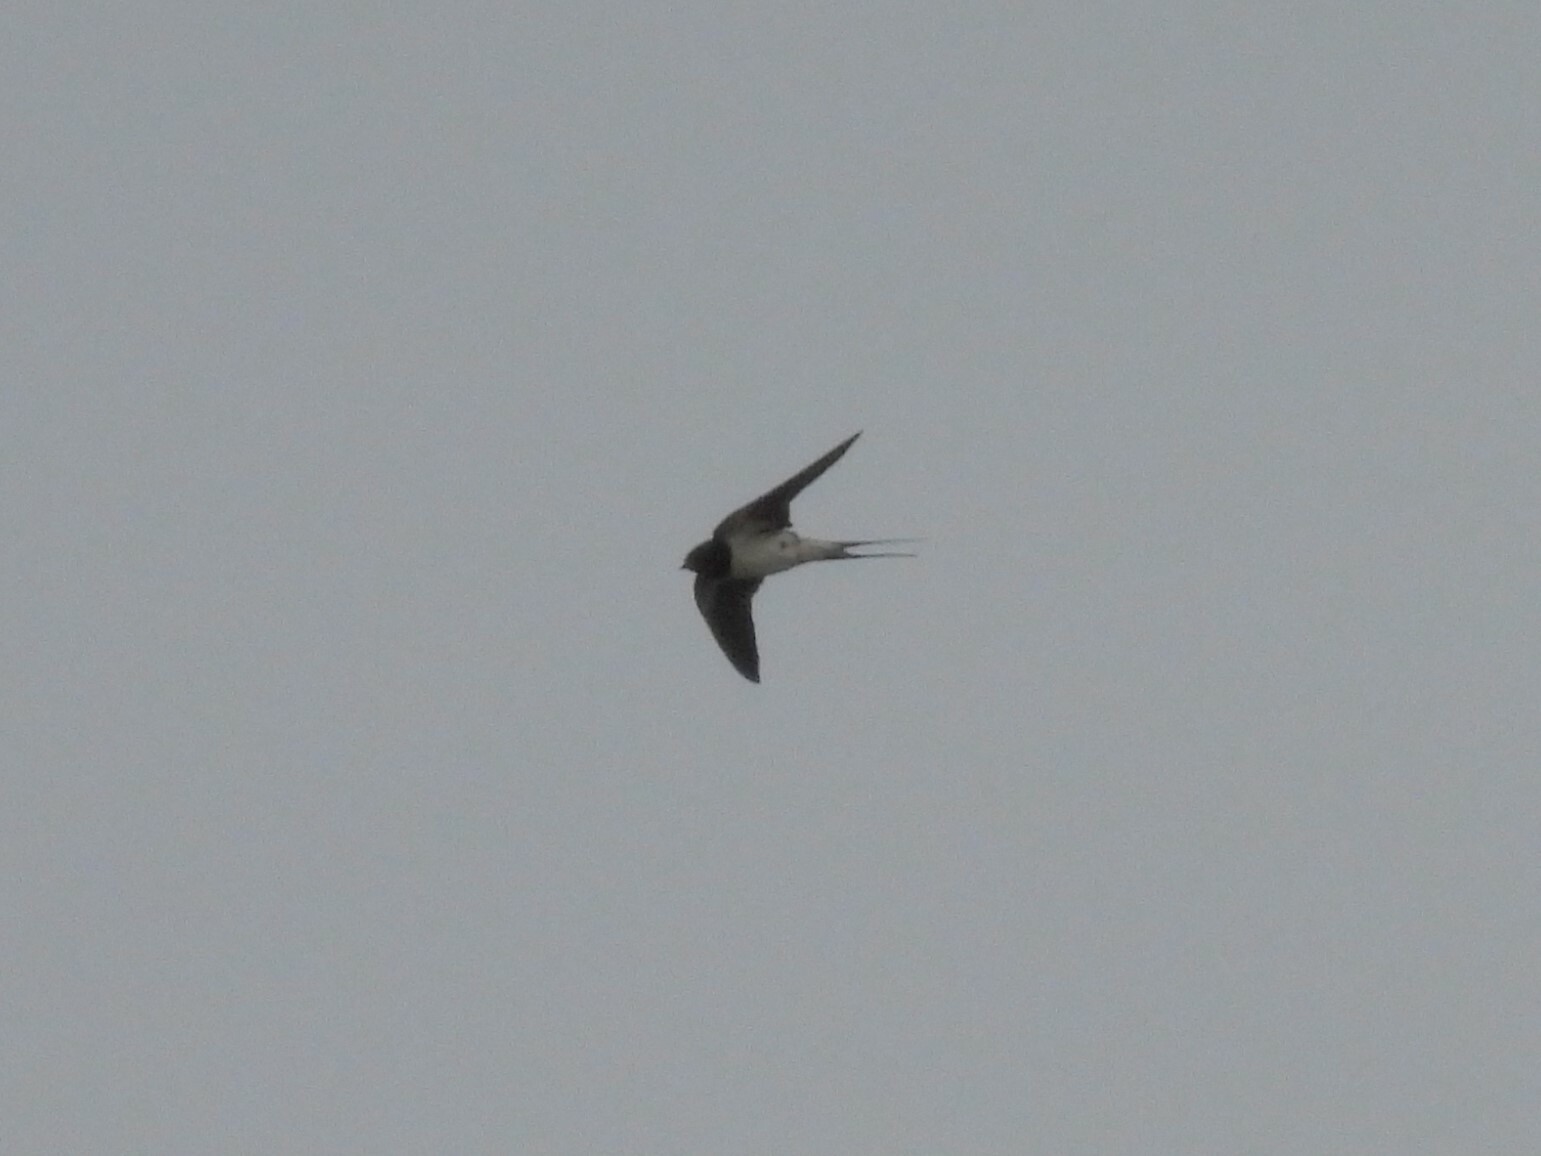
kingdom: Animalia
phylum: Chordata
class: Aves
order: Passeriformes
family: Hirundinidae
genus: Hirundo
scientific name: Hirundo rustica
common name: Barn swallow
